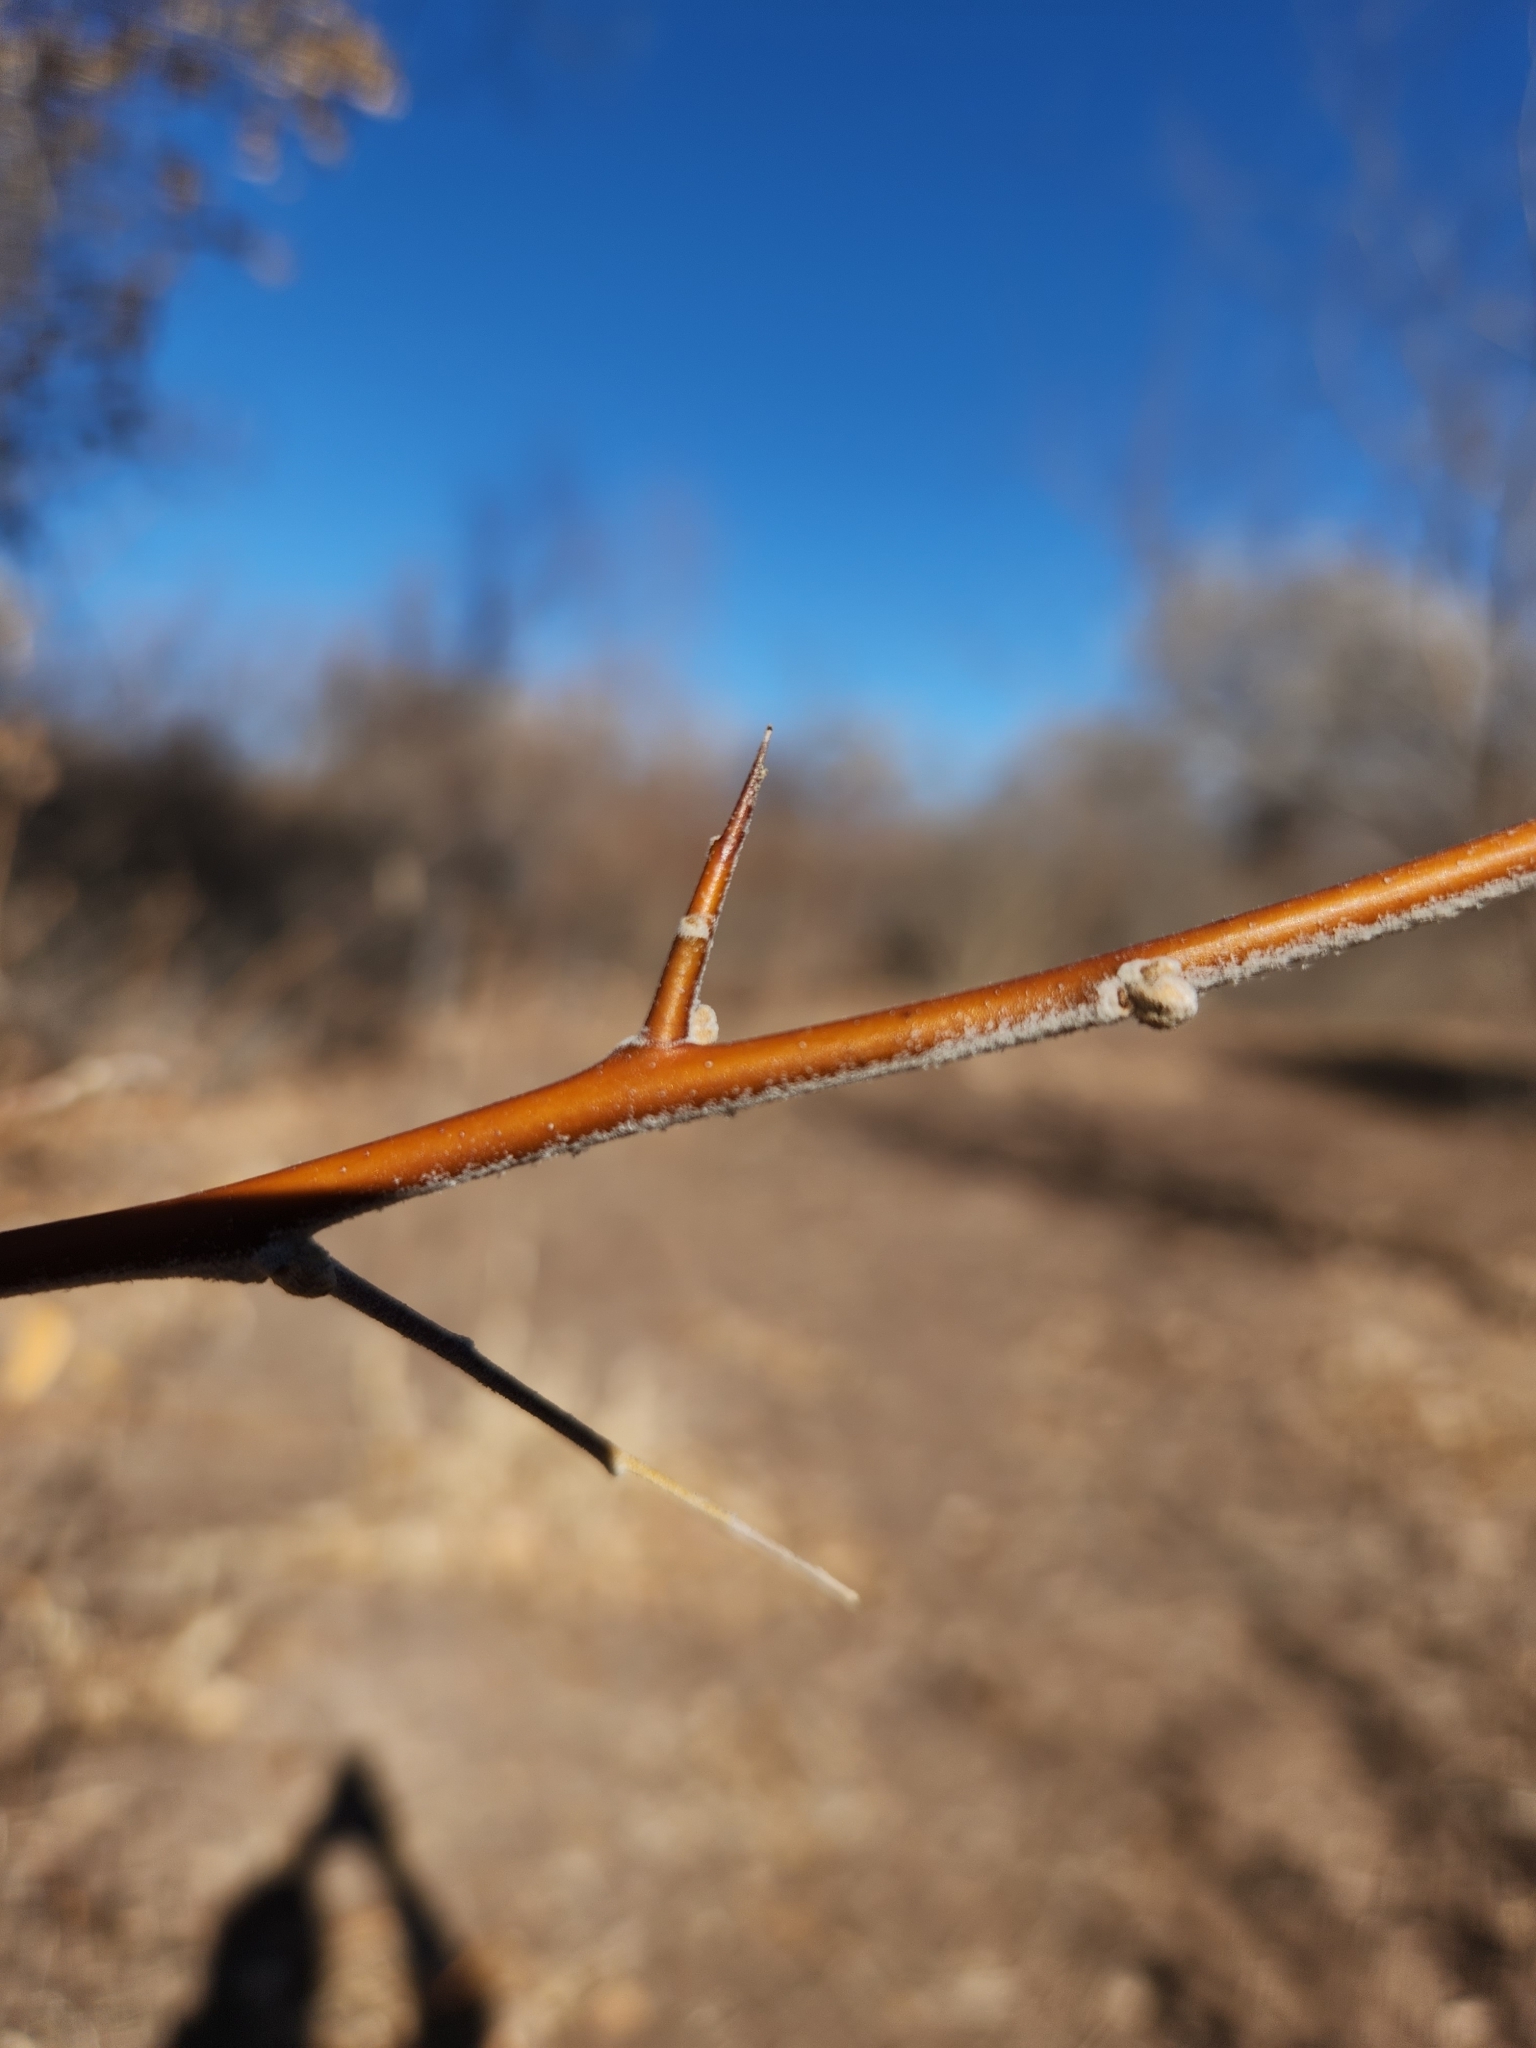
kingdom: Plantae
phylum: Tracheophyta
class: Magnoliopsida
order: Rosales
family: Elaeagnaceae
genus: Elaeagnus
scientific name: Elaeagnus angustifolia
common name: Russian olive
